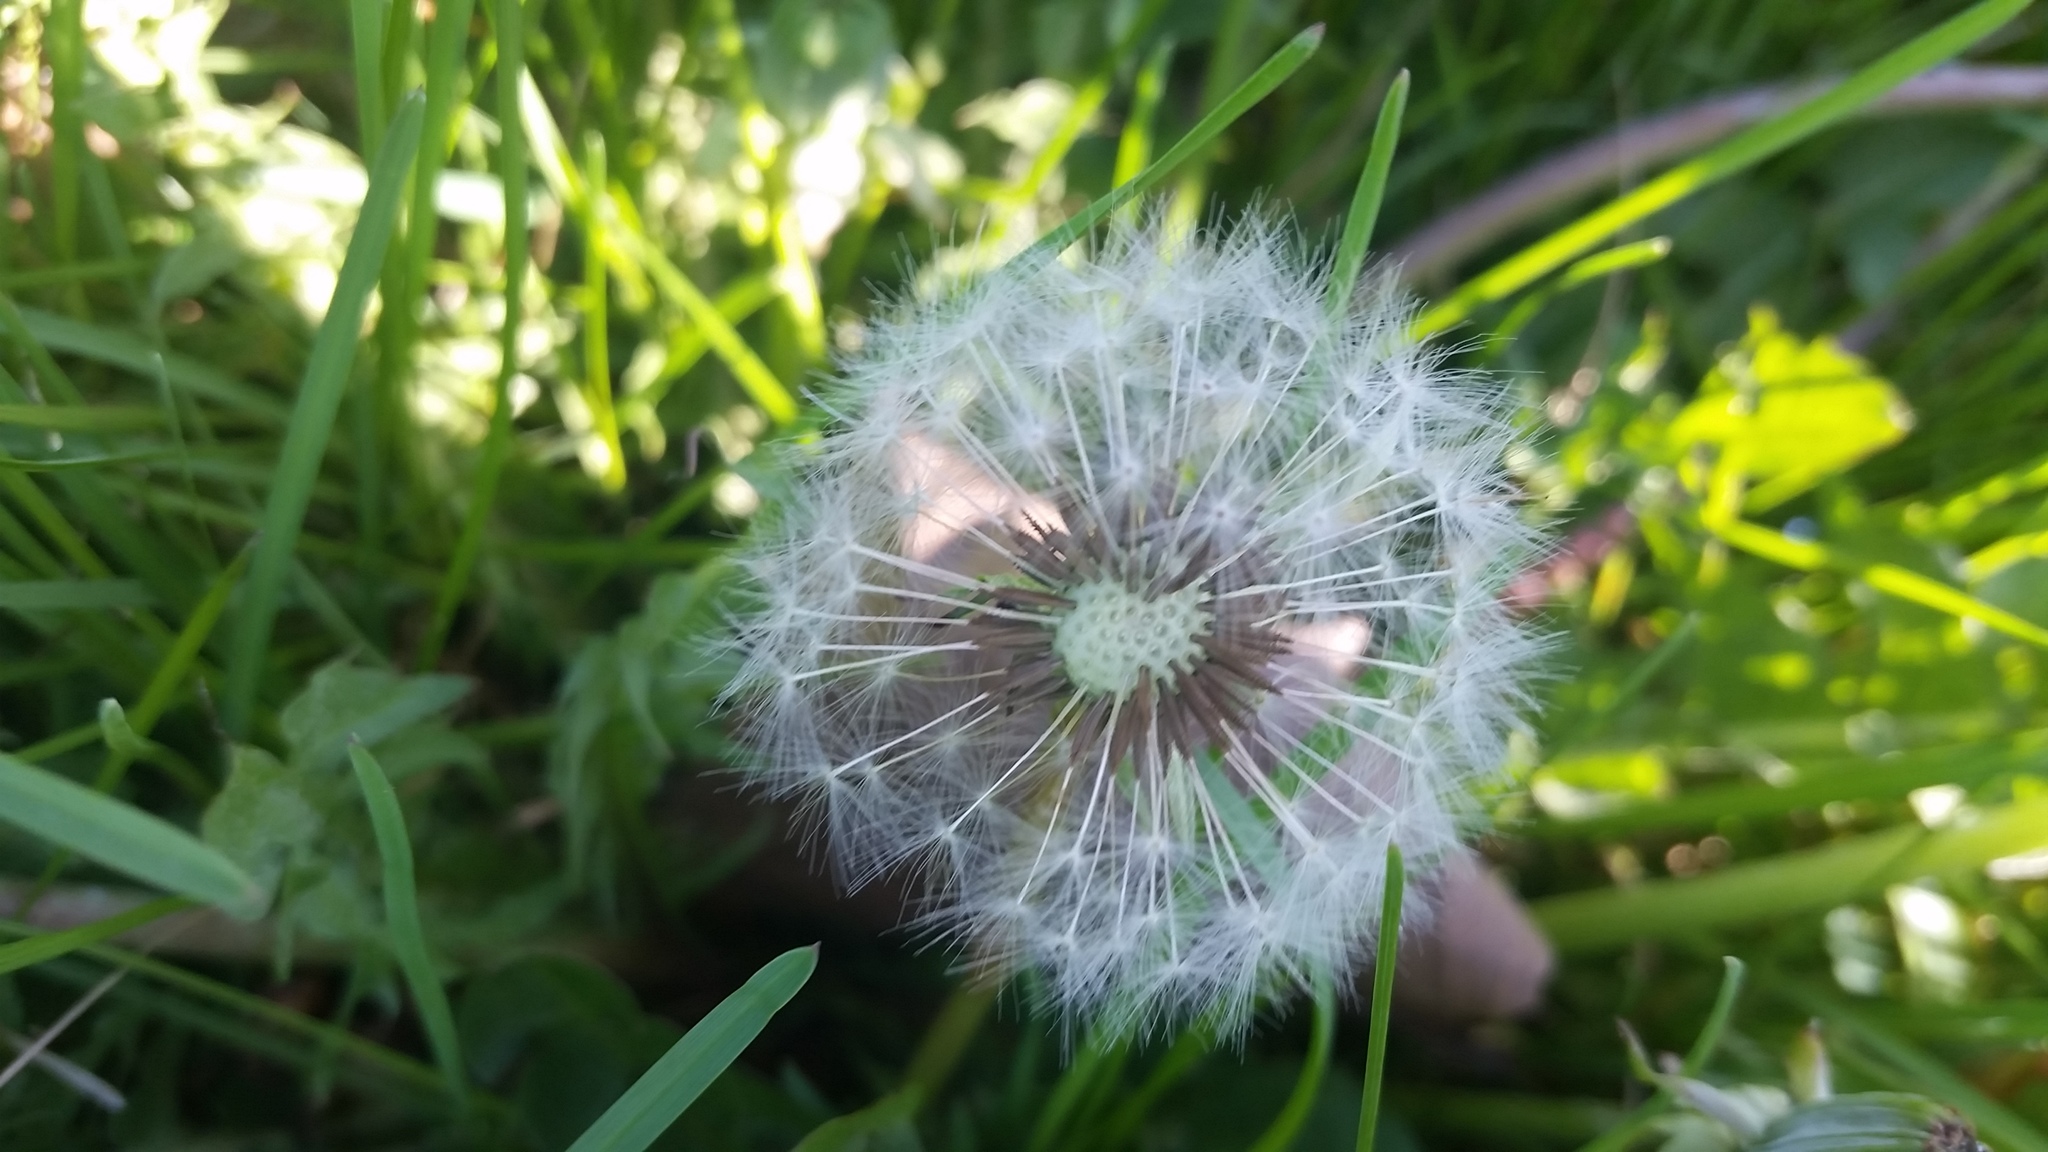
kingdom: Plantae
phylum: Tracheophyta
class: Magnoliopsida
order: Asterales
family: Asteraceae
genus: Taraxacum
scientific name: Taraxacum officinale
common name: Common dandelion
